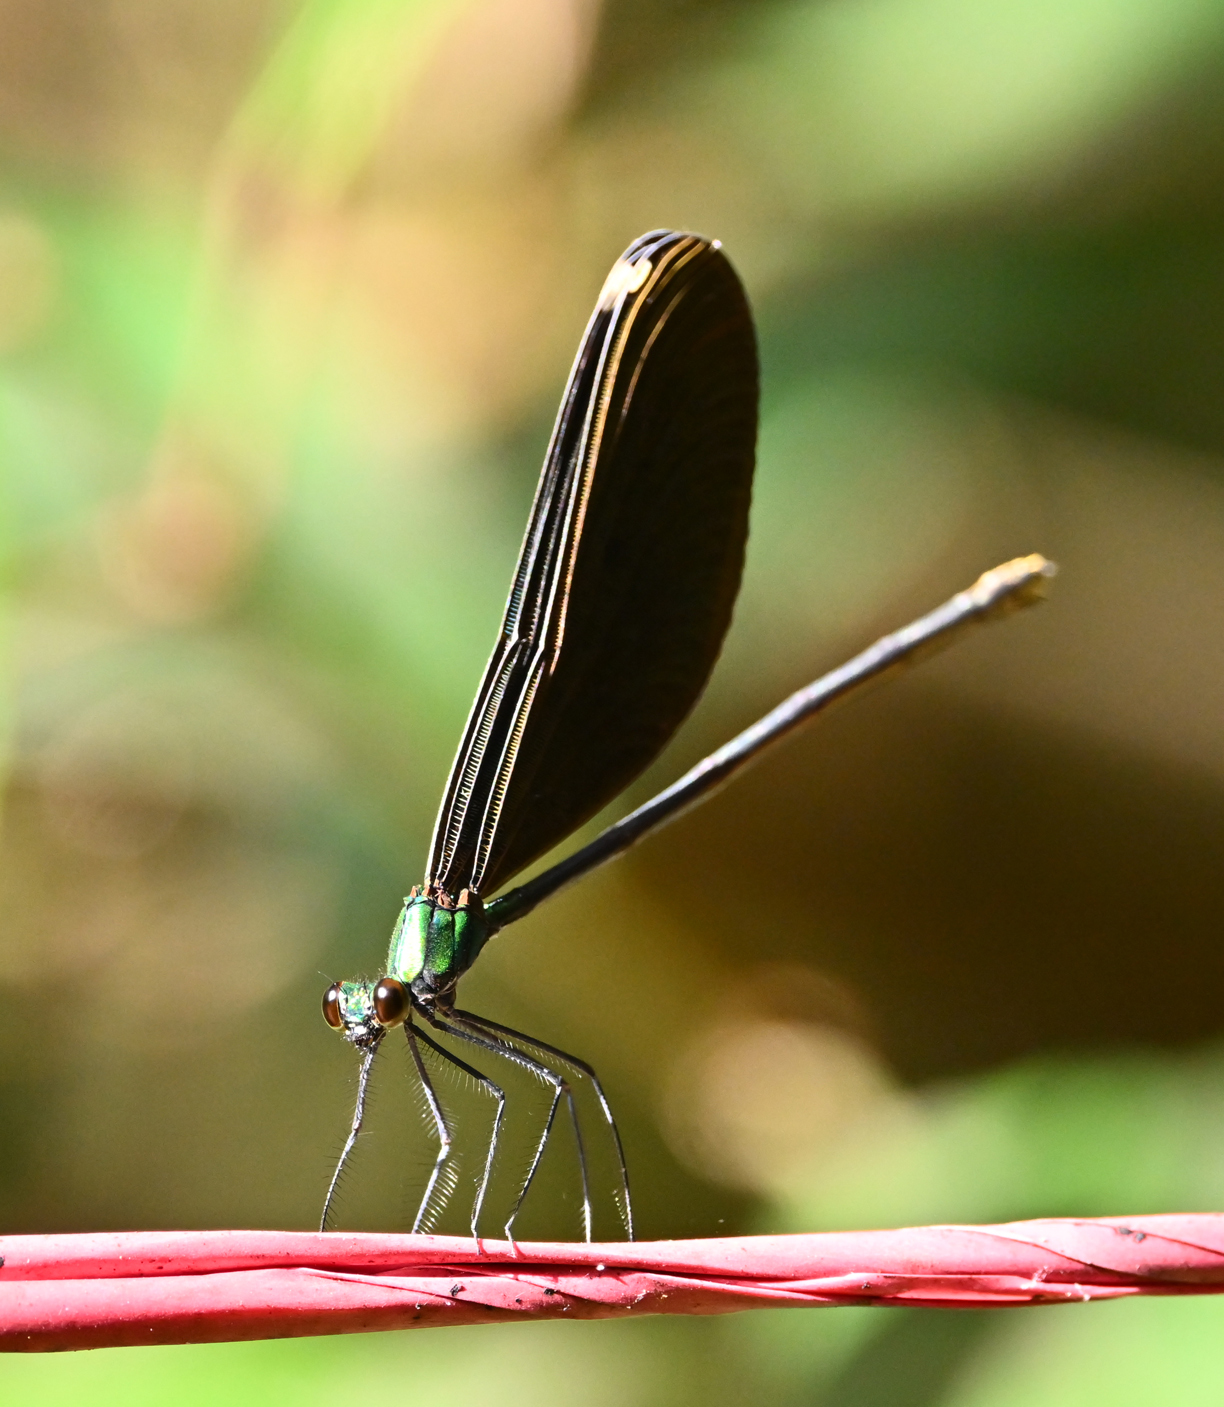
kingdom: Animalia
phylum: Arthropoda
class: Insecta
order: Odonata
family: Calopterygidae
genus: Matrona
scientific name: Matrona cyanoptera
